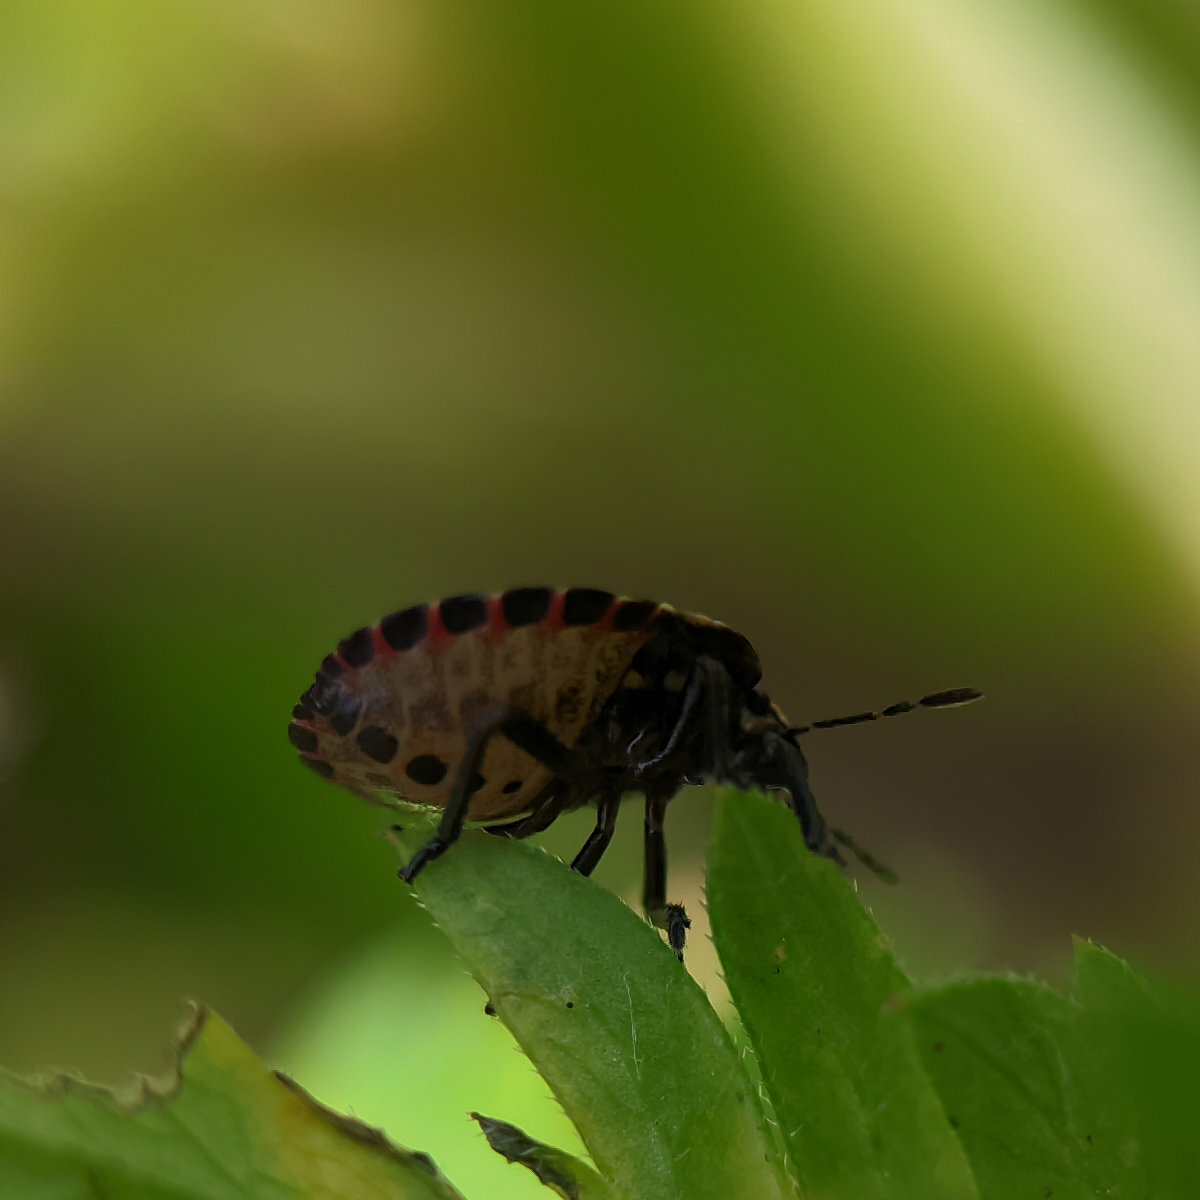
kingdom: Animalia
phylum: Arthropoda
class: Insecta
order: Hemiptera
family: Pentatomidae
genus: Graphosoma
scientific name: Graphosoma italicum
